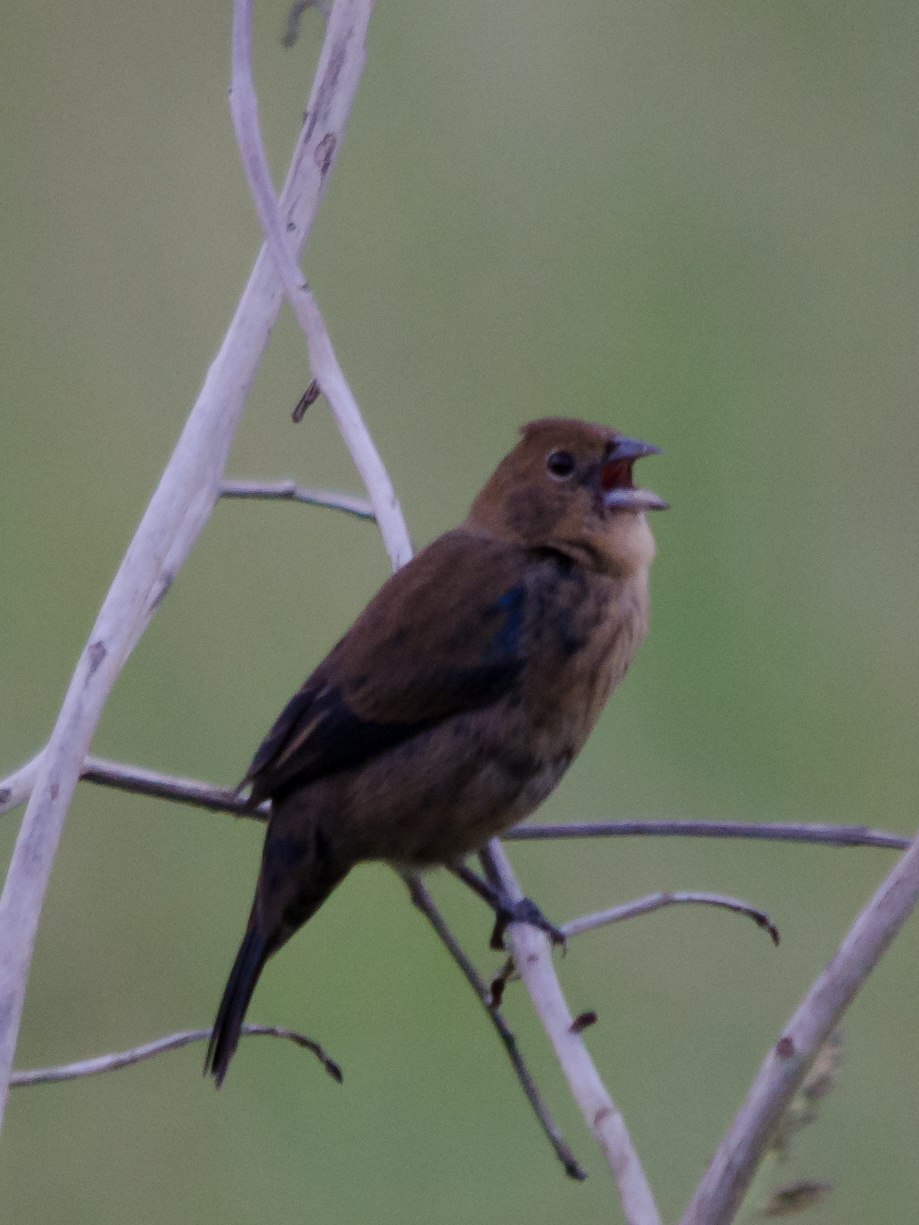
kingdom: Animalia
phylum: Chordata
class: Aves
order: Passeriformes
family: Thraupidae
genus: Volatinia
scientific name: Volatinia jacarina
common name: Blue-black grassquit
